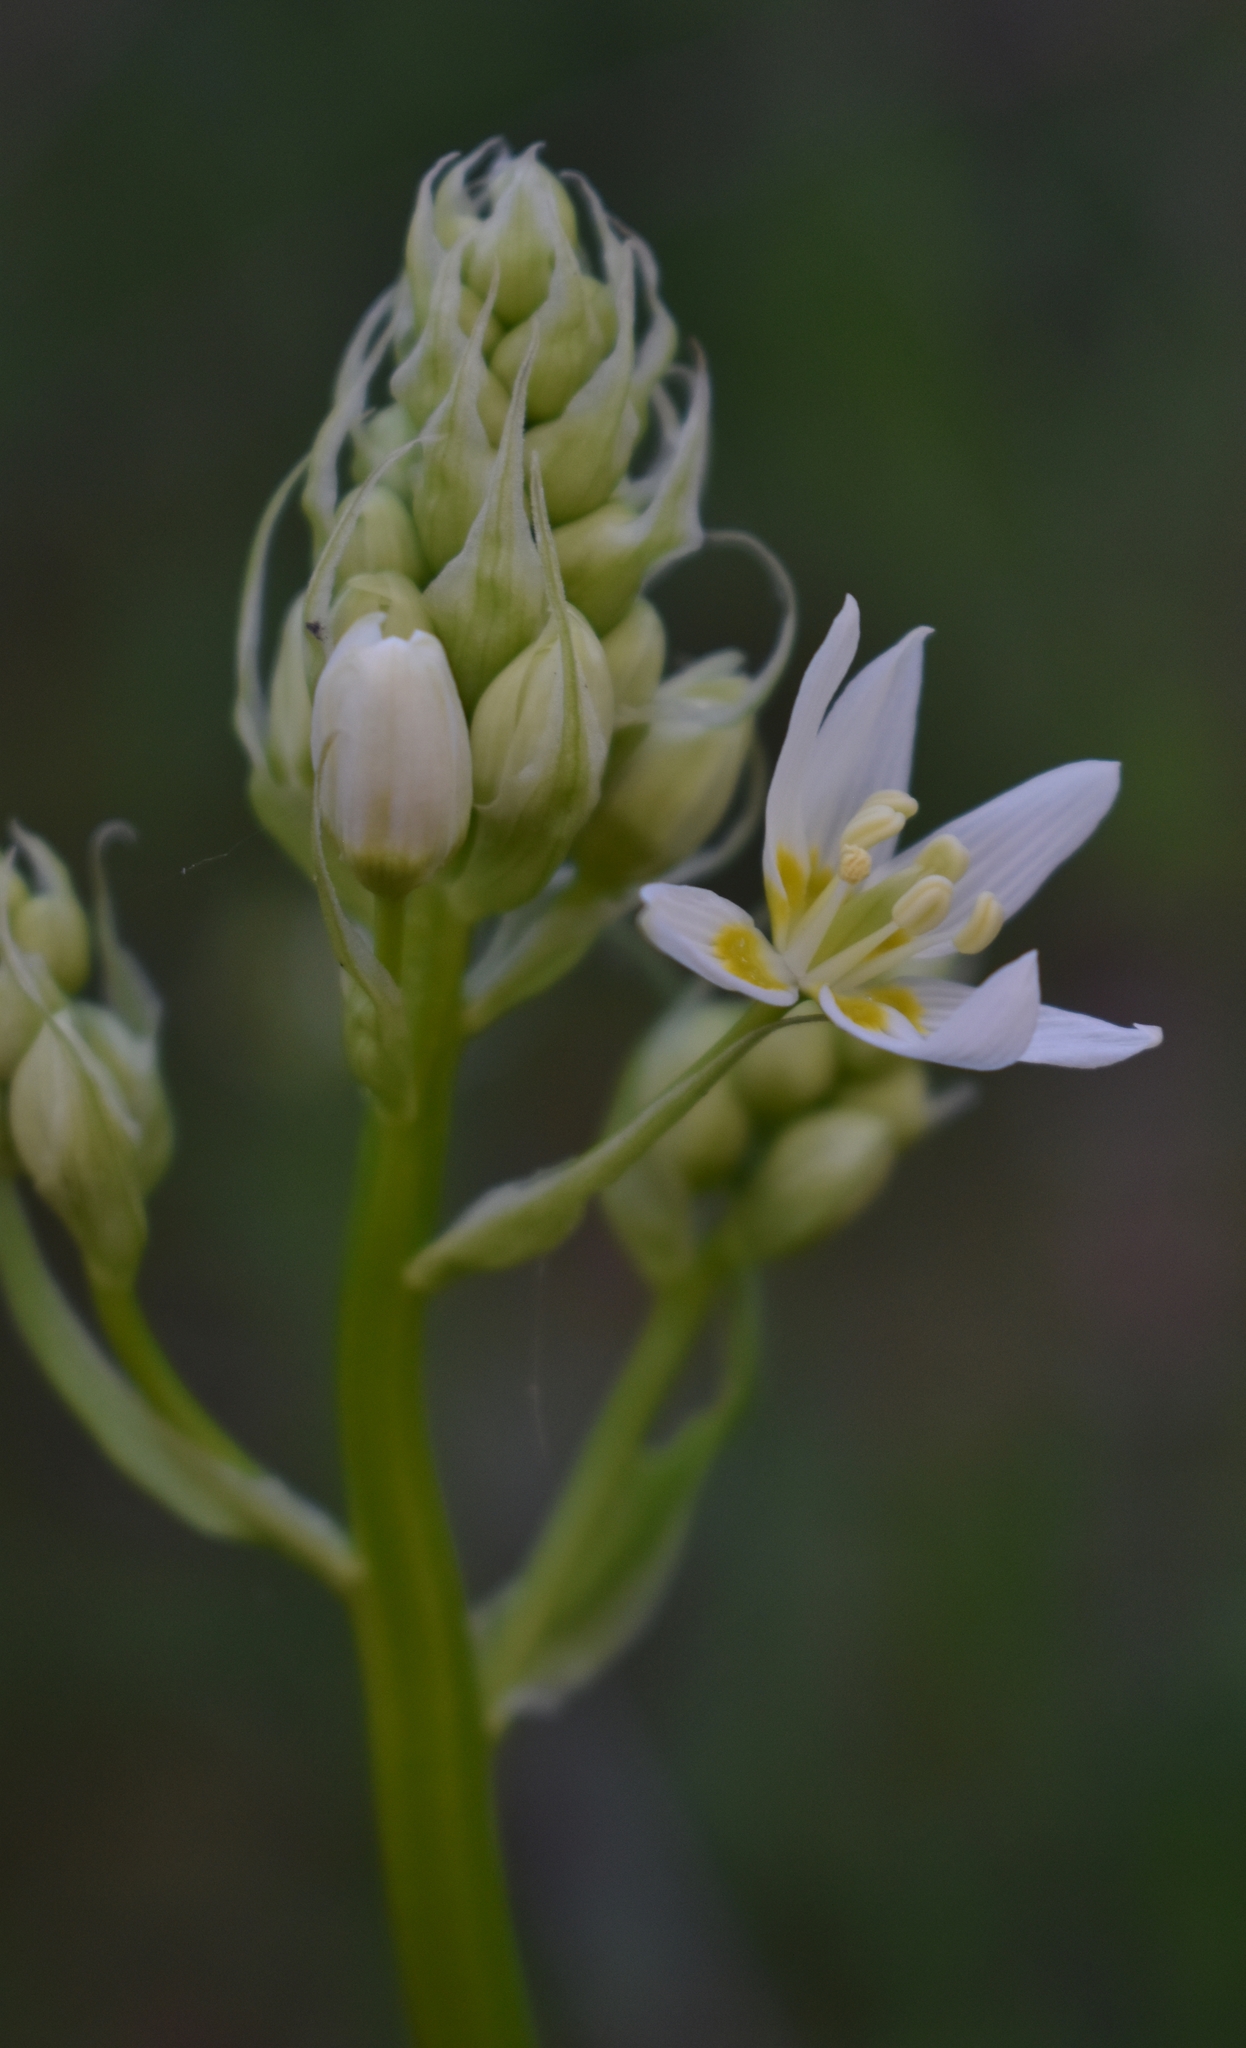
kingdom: Plantae
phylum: Tracheophyta
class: Liliopsida
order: Liliales
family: Melanthiaceae
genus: Toxicoscordion
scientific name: Toxicoscordion fremontii
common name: Fremont's death camas
